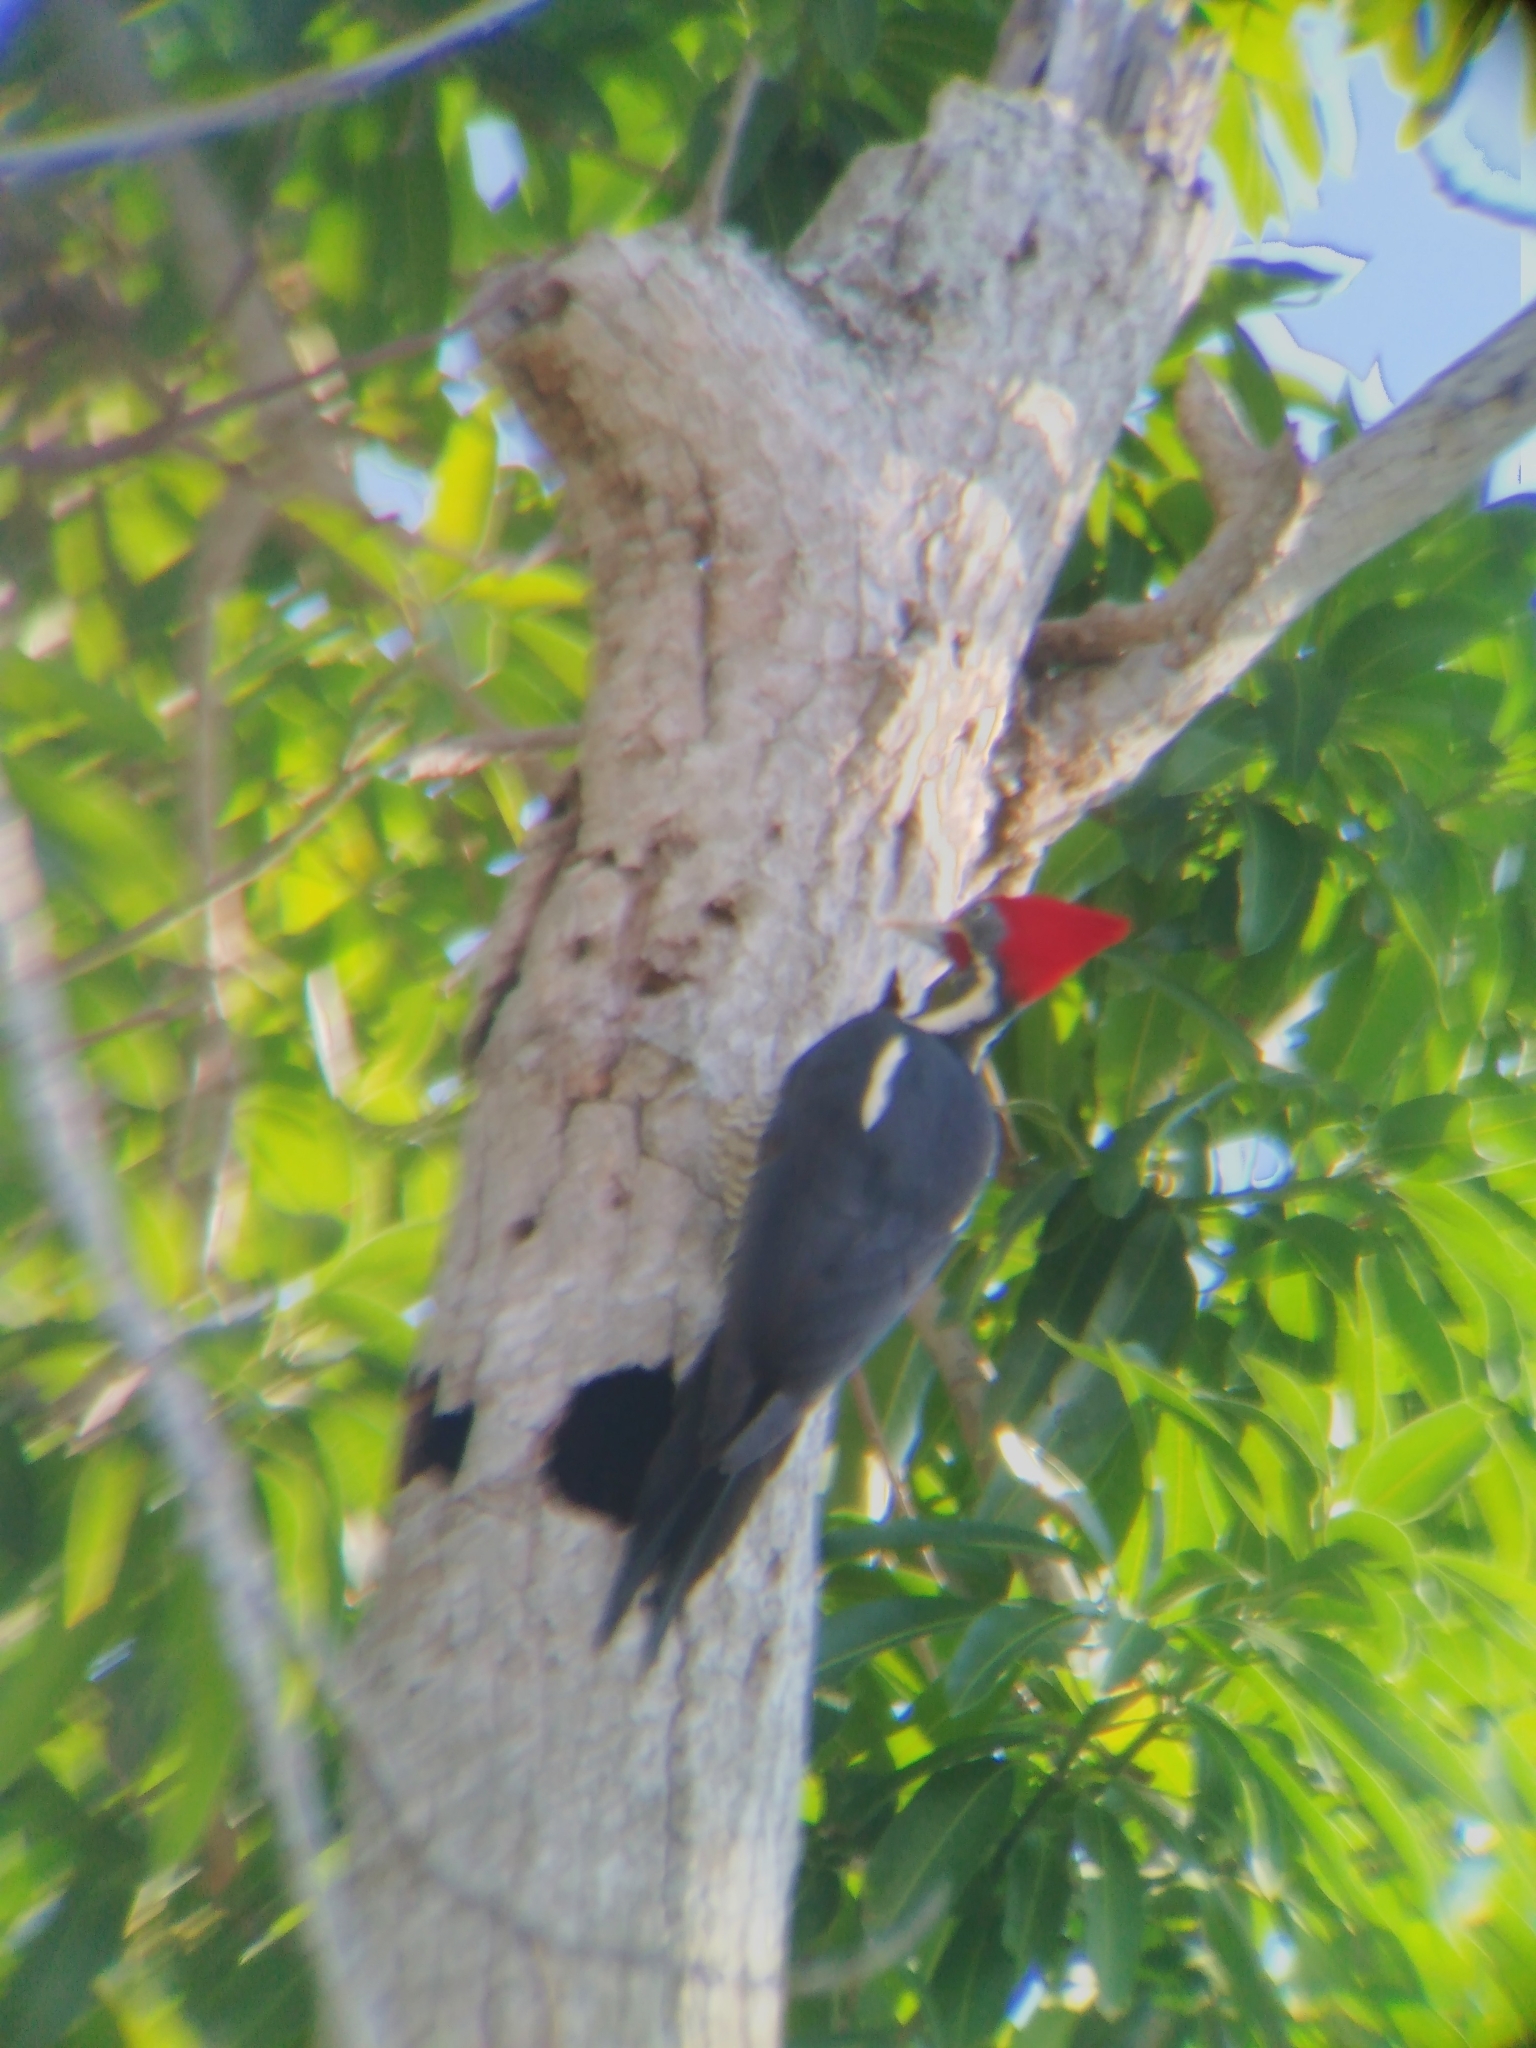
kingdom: Animalia
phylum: Chordata
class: Aves
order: Piciformes
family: Picidae
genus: Dryocopus
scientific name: Dryocopus lineatus
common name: Lineated woodpecker
